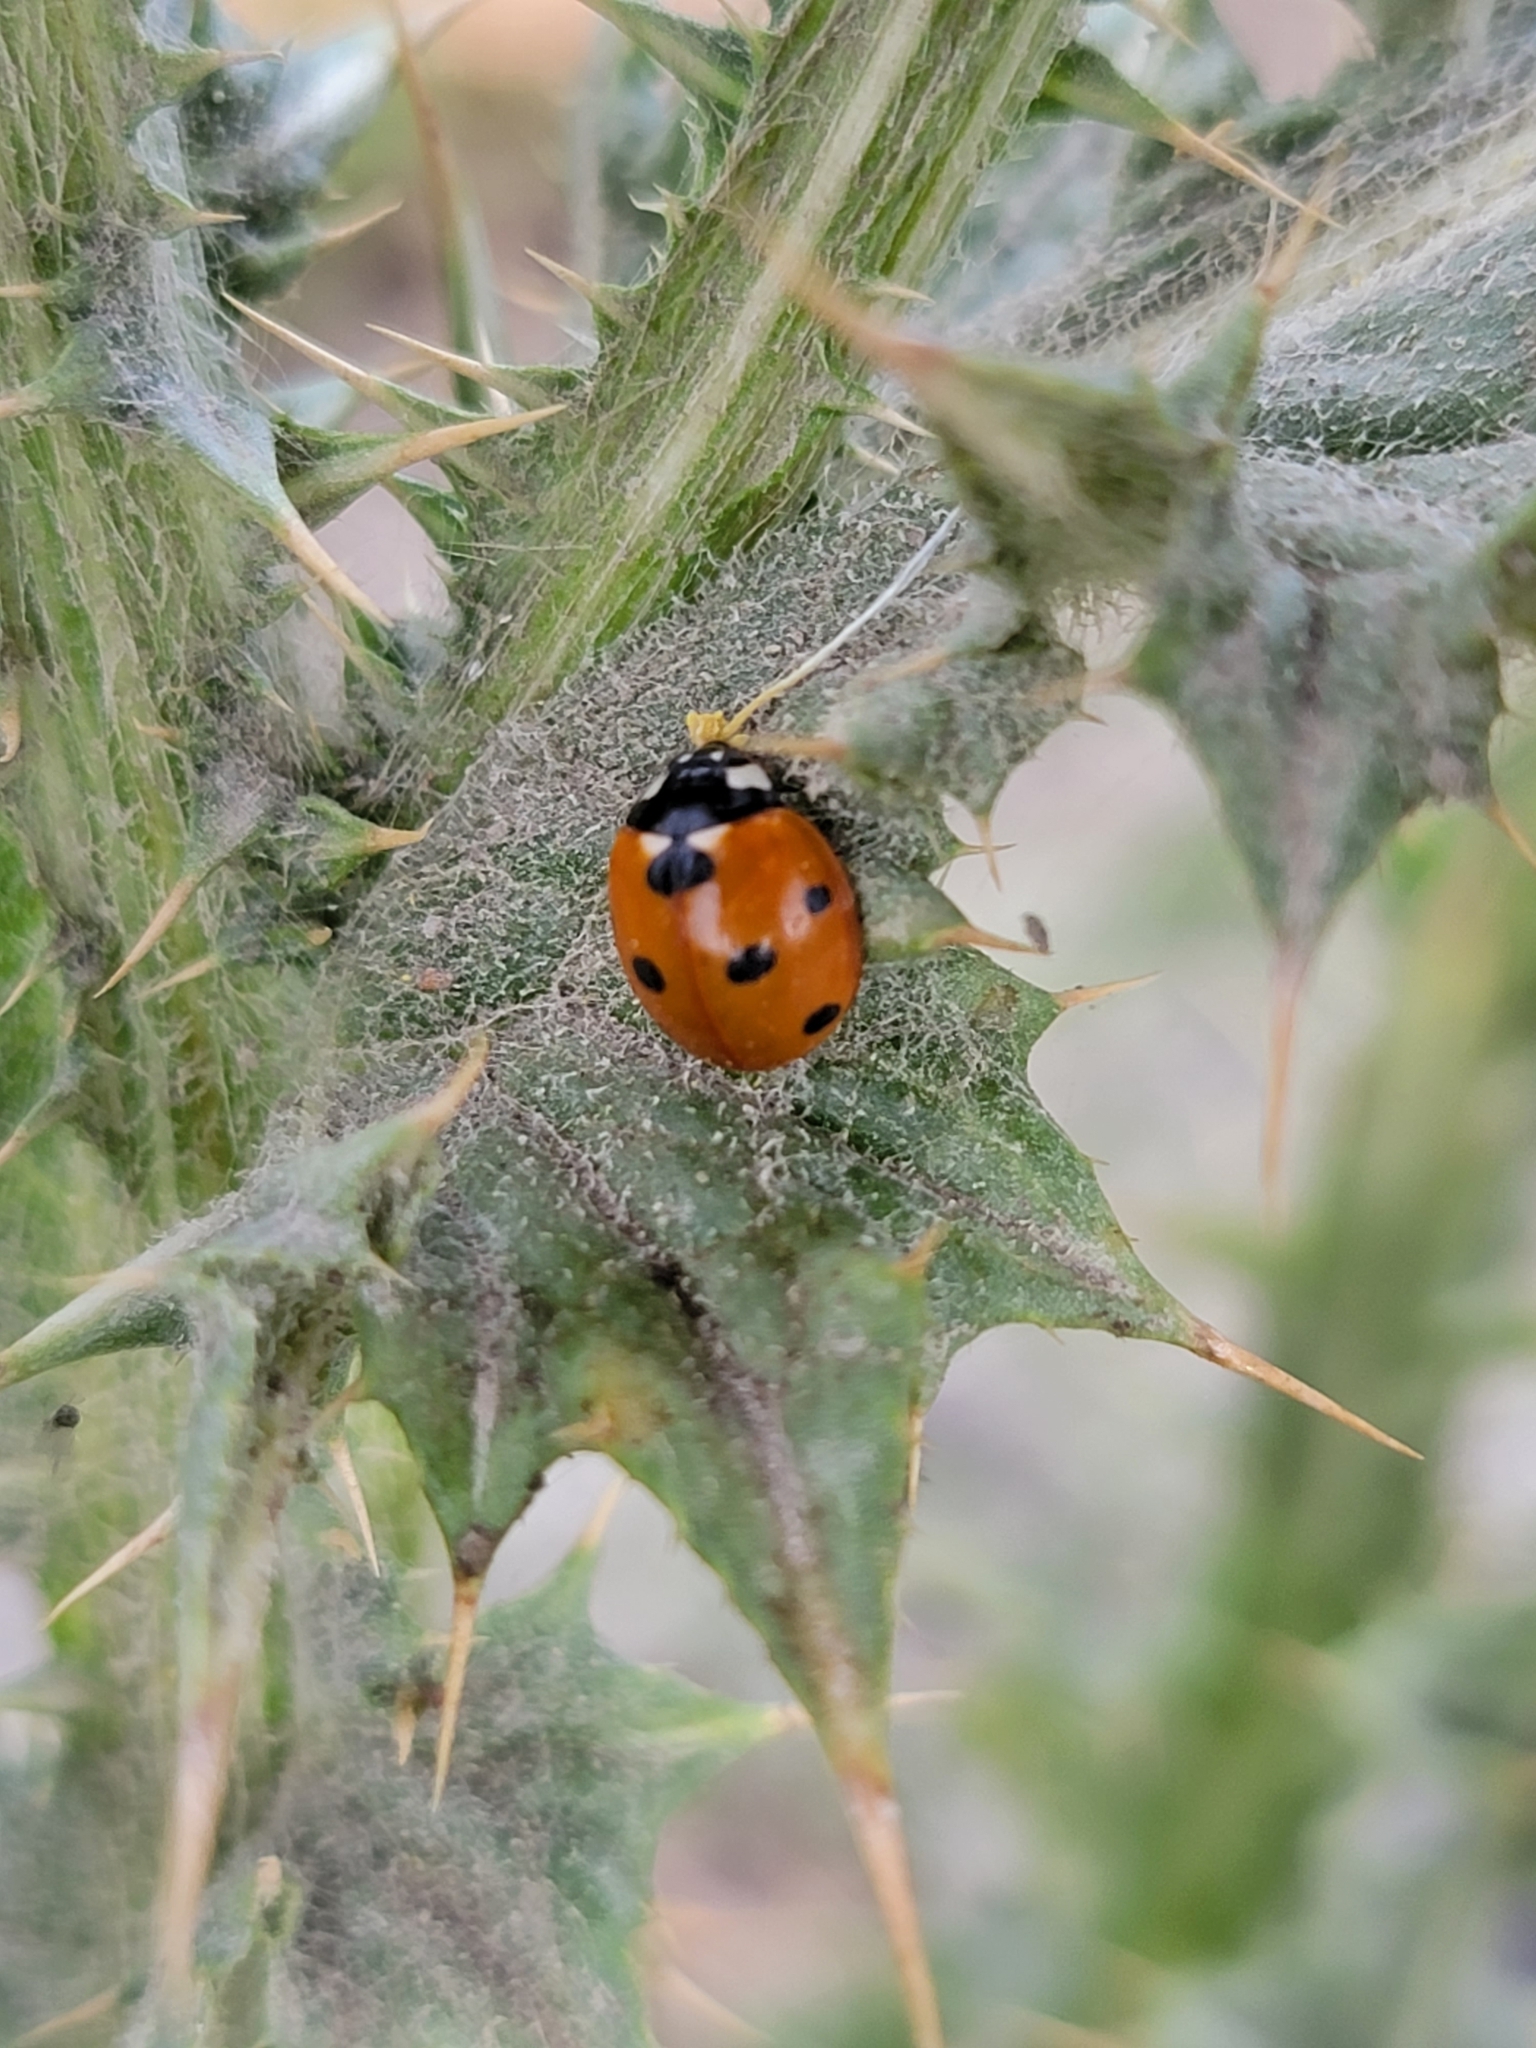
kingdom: Animalia
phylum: Arthropoda
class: Insecta
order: Coleoptera
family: Coccinellidae
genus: Coccinella
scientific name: Coccinella septempunctata
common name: Sevenspotted lady beetle
